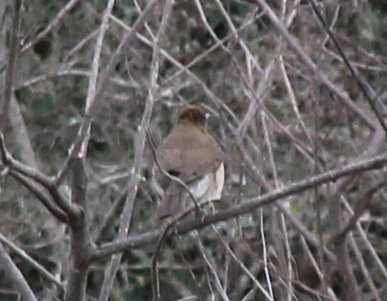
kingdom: Animalia
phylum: Chordata
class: Aves
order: Passeriformes
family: Turdidae
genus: Turdus
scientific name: Turdus amaurochalinus
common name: Creamy-bellied thrush
